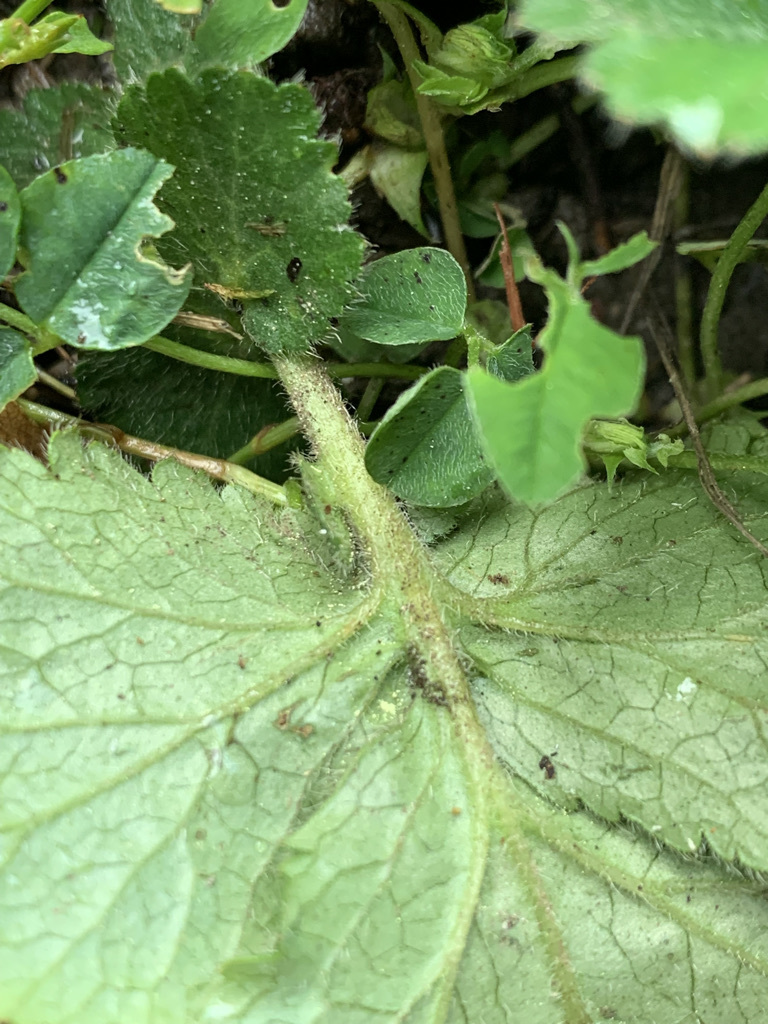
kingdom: Plantae
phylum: Tracheophyta
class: Magnoliopsida
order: Rosales
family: Rosaceae
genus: Geum
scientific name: Geum urbanum
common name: Wood avens
